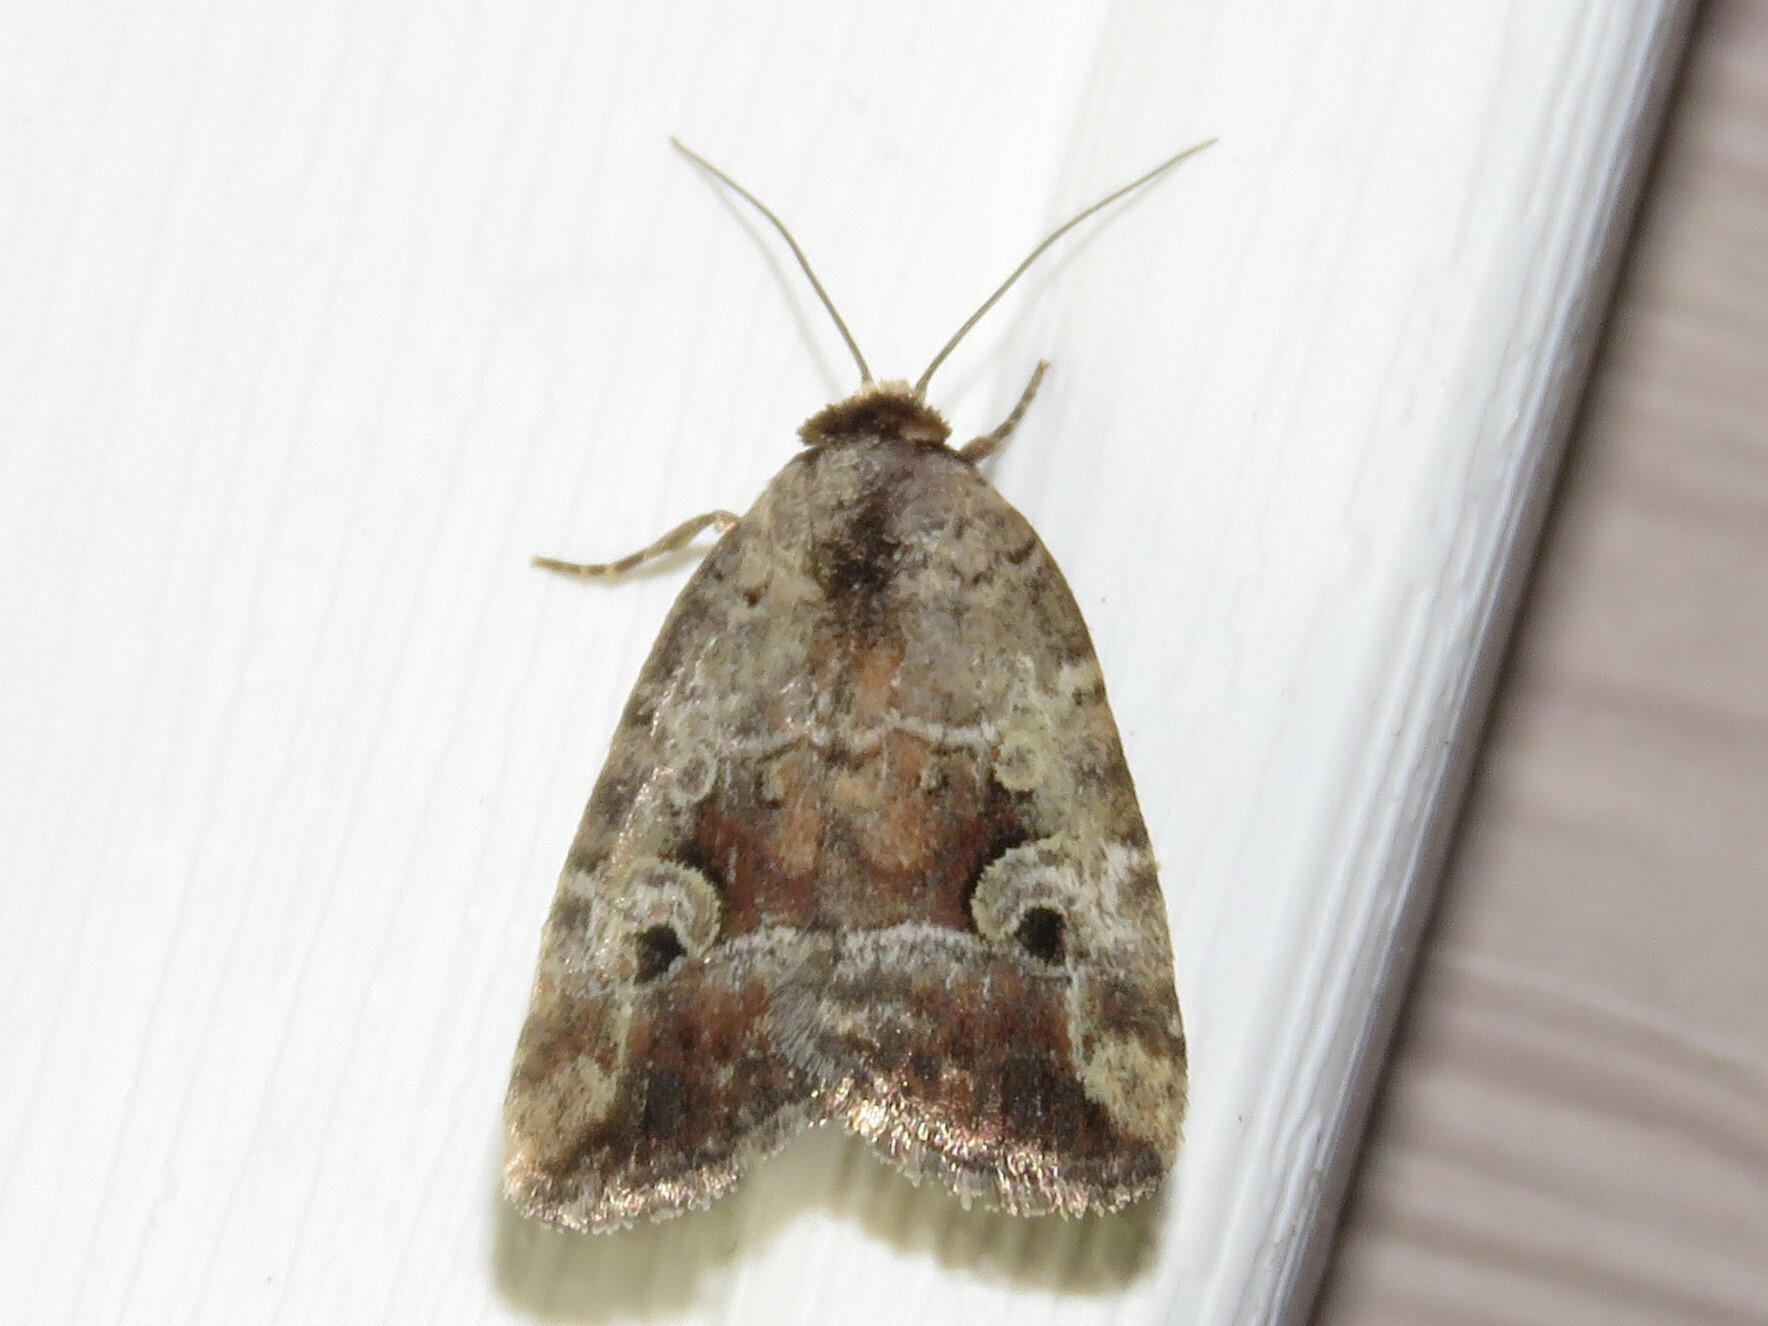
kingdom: Animalia
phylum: Arthropoda
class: Insecta
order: Lepidoptera
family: Noctuidae
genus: Elaphria
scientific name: Elaphria alapallida
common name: Pale-winged midget
